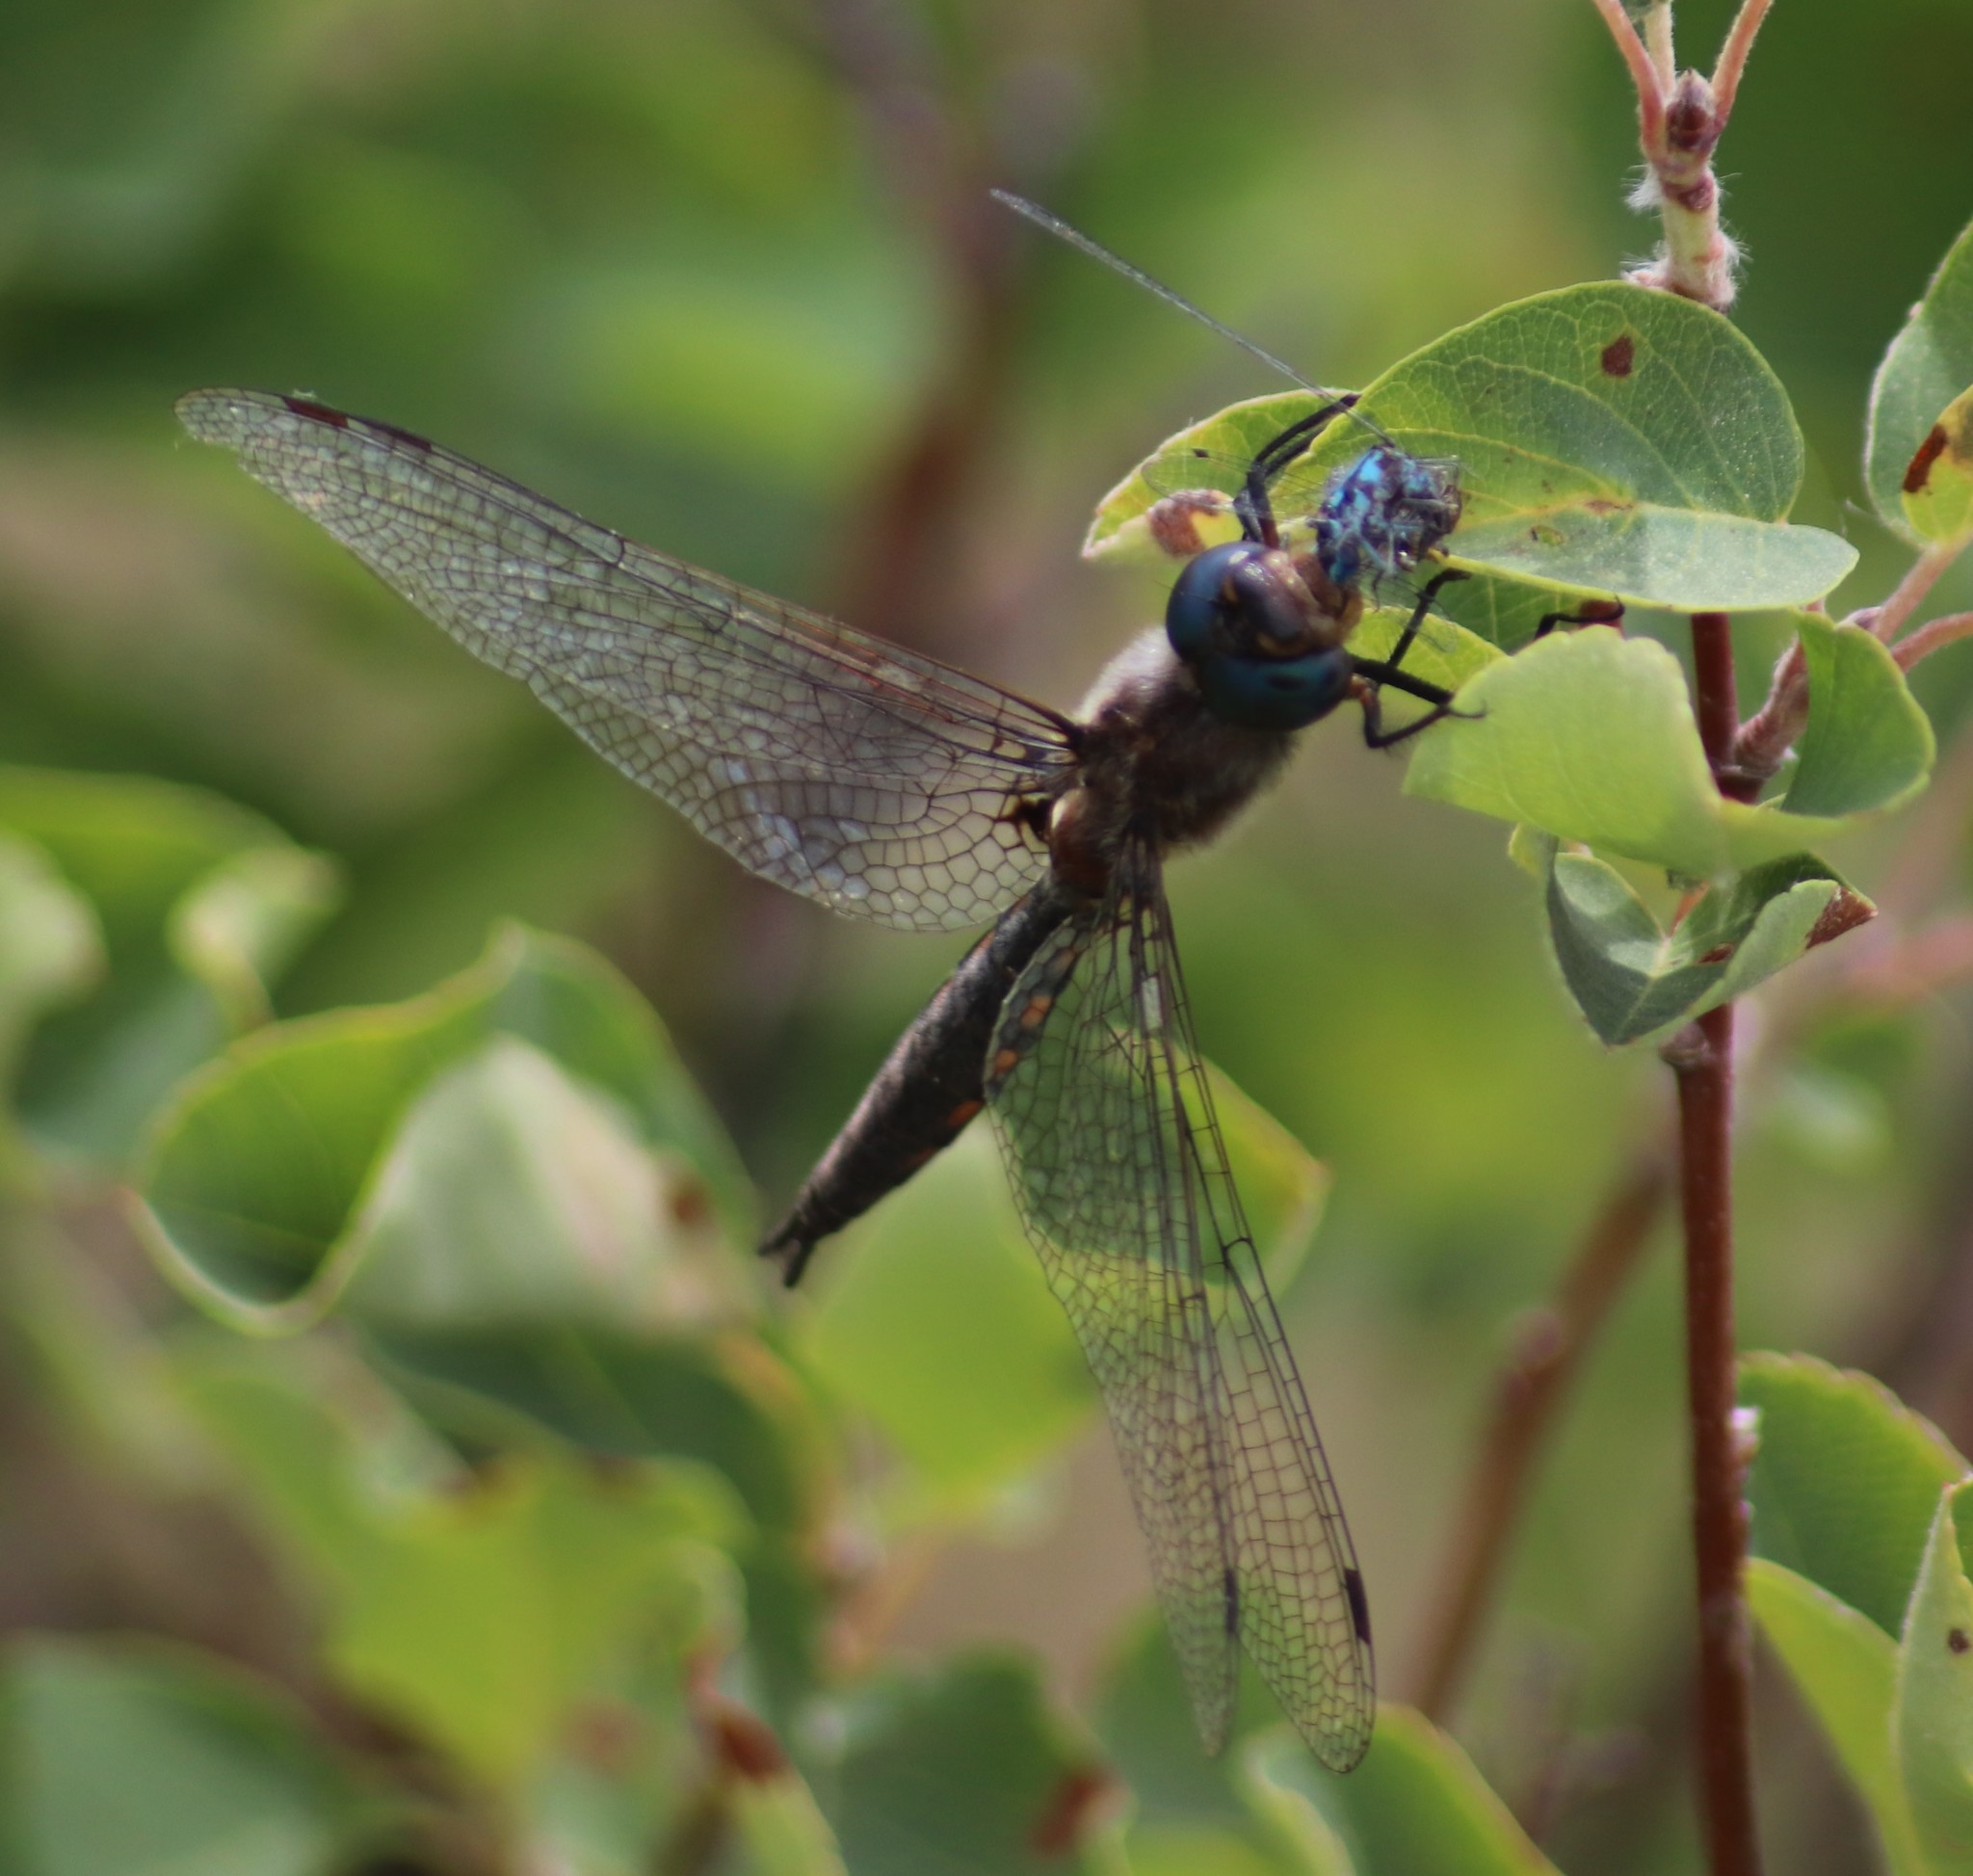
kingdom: Animalia
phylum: Arthropoda
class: Insecta
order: Odonata
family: Corduliidae
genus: Epitheca
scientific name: Epitheca spinigera
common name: Spiny baskettail
